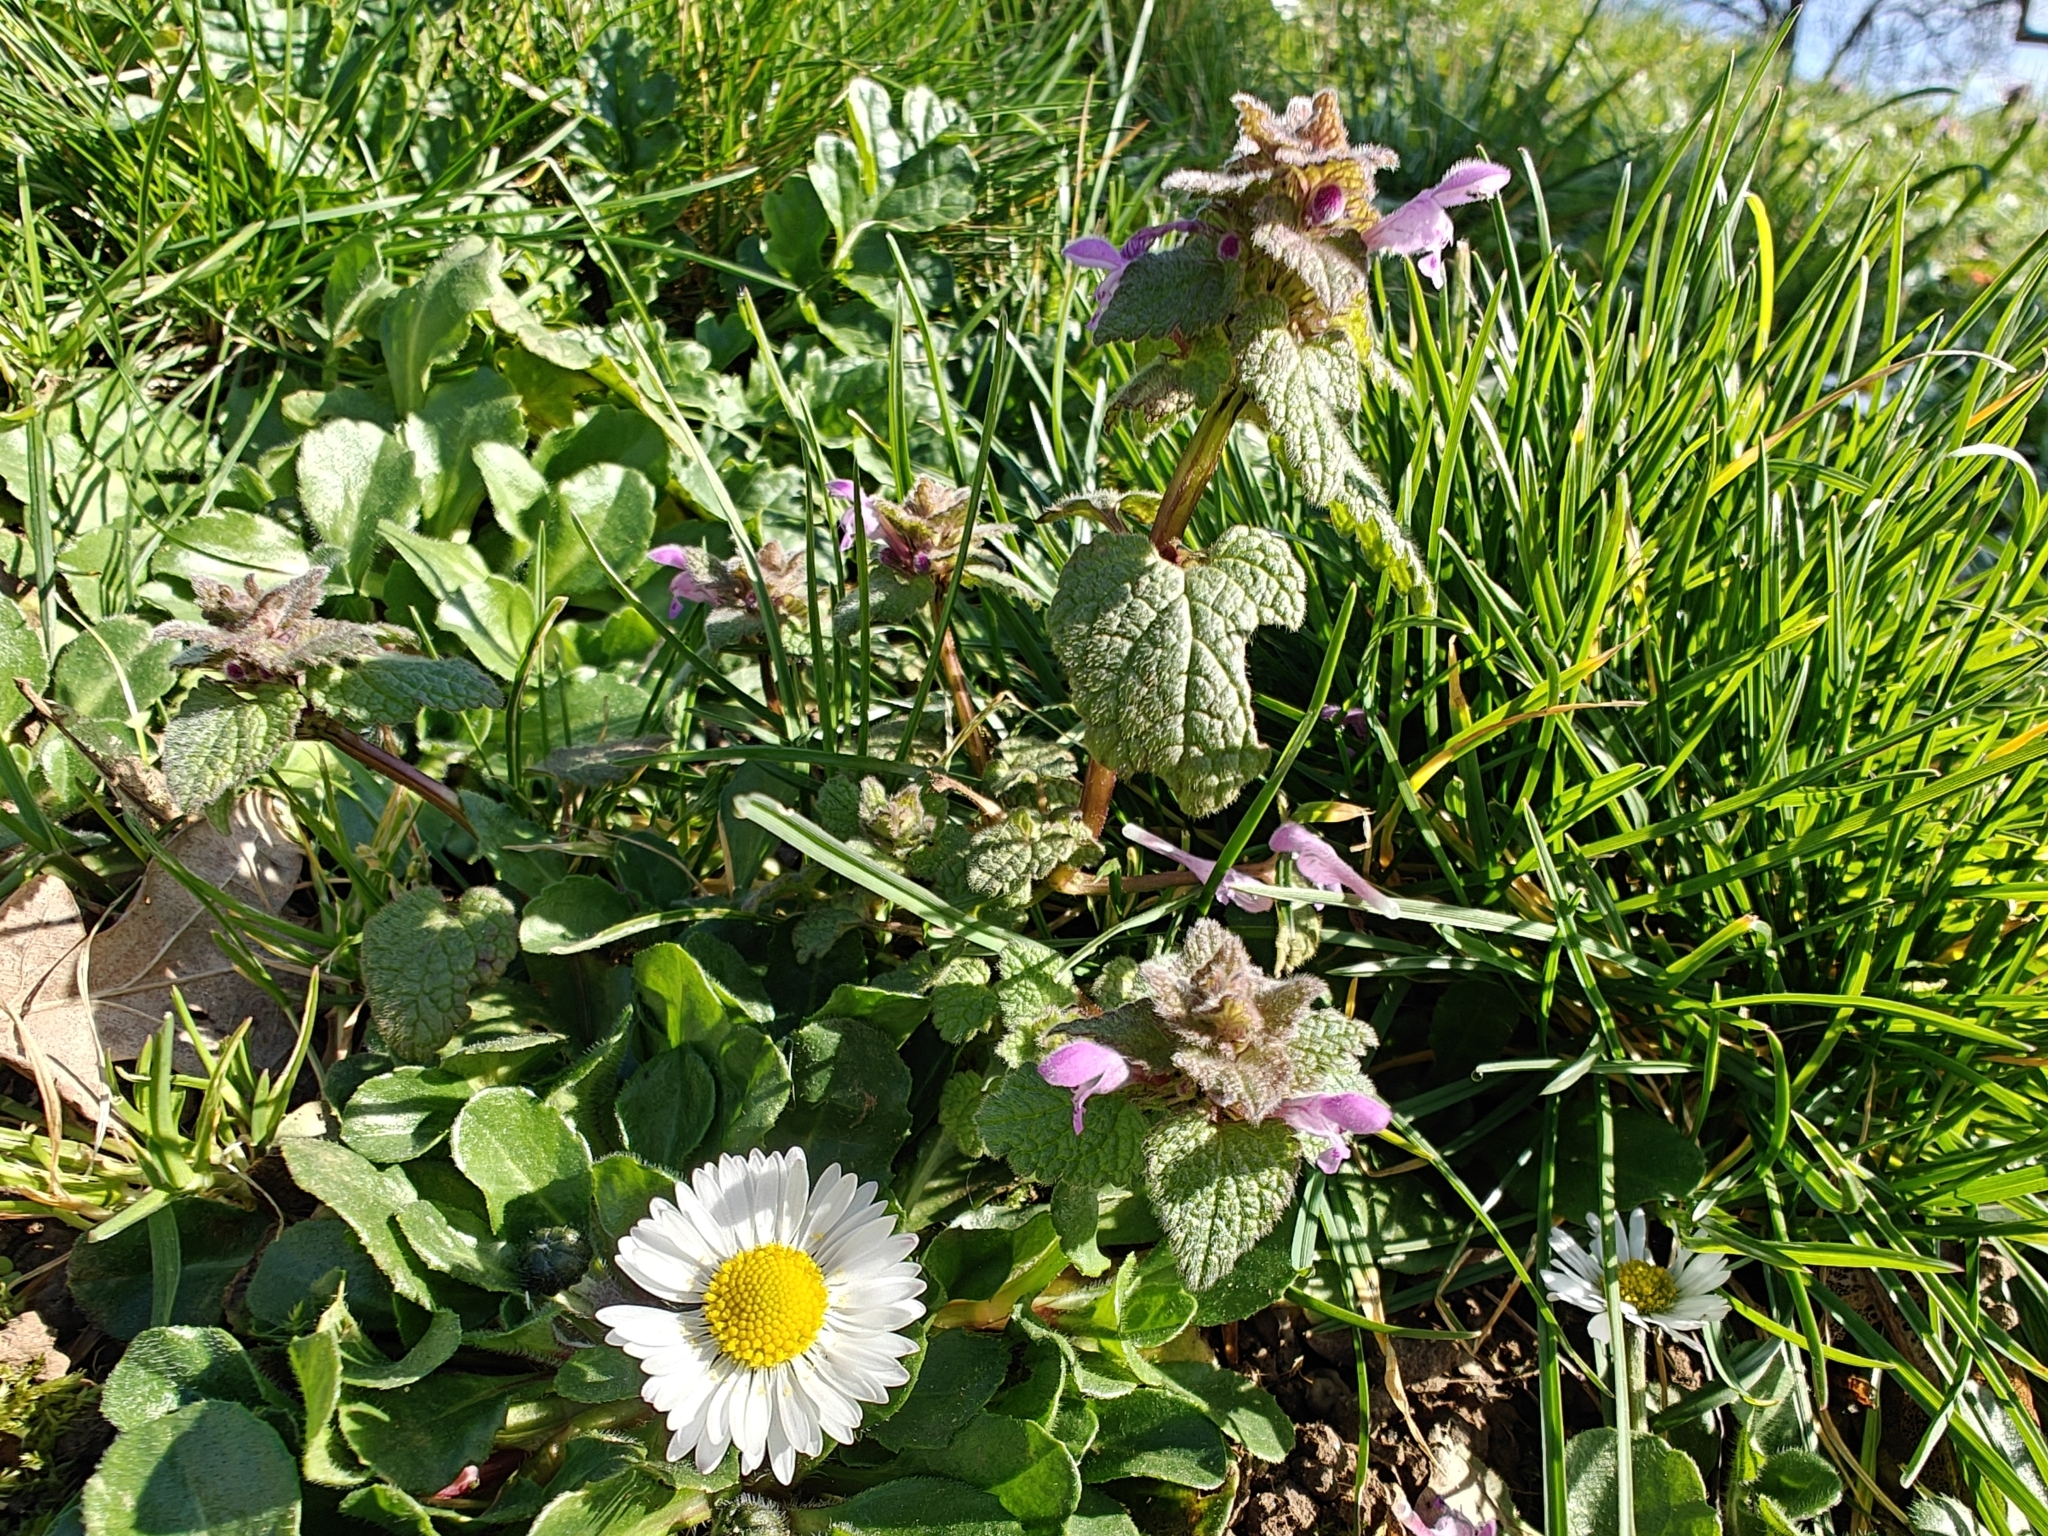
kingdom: Plantae
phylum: Tracheophyta
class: Magnoliopsida
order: Lamiales
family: Lamiaceae
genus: Lamium
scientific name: Lamium purpureum
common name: Red dead-nettle
